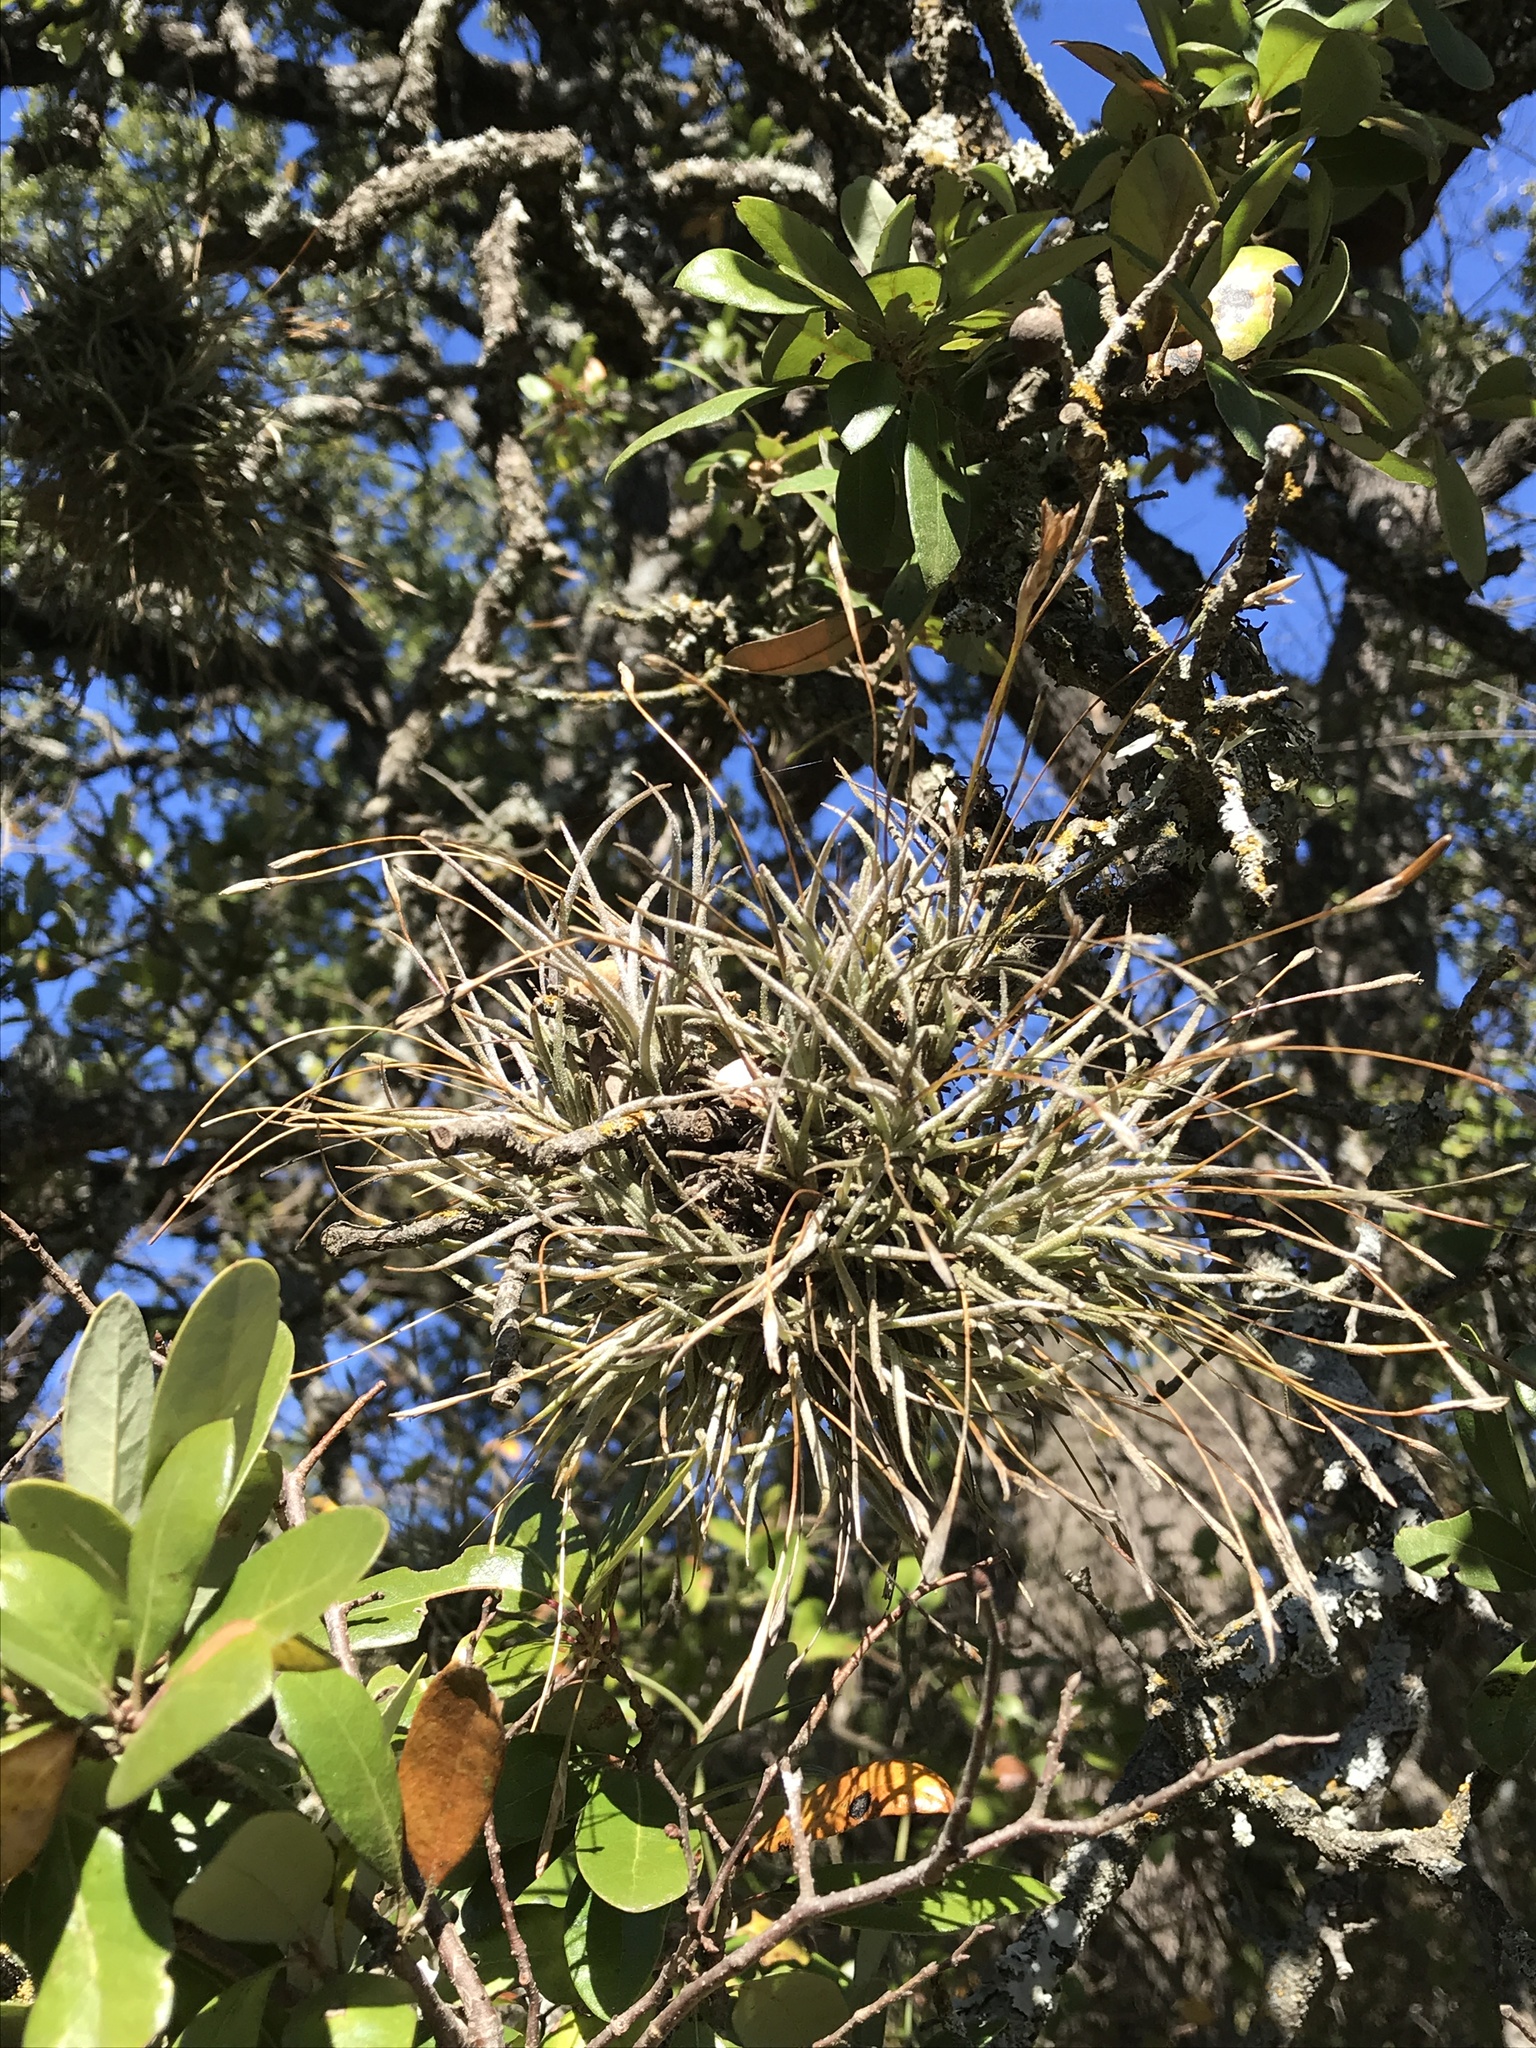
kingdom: Plantae
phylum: Tracheophyta
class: Liliopsida
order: Poales
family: Bromeliaceae
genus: Tillandsia
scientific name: Tillandsia recurvata
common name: Small ballmoss
